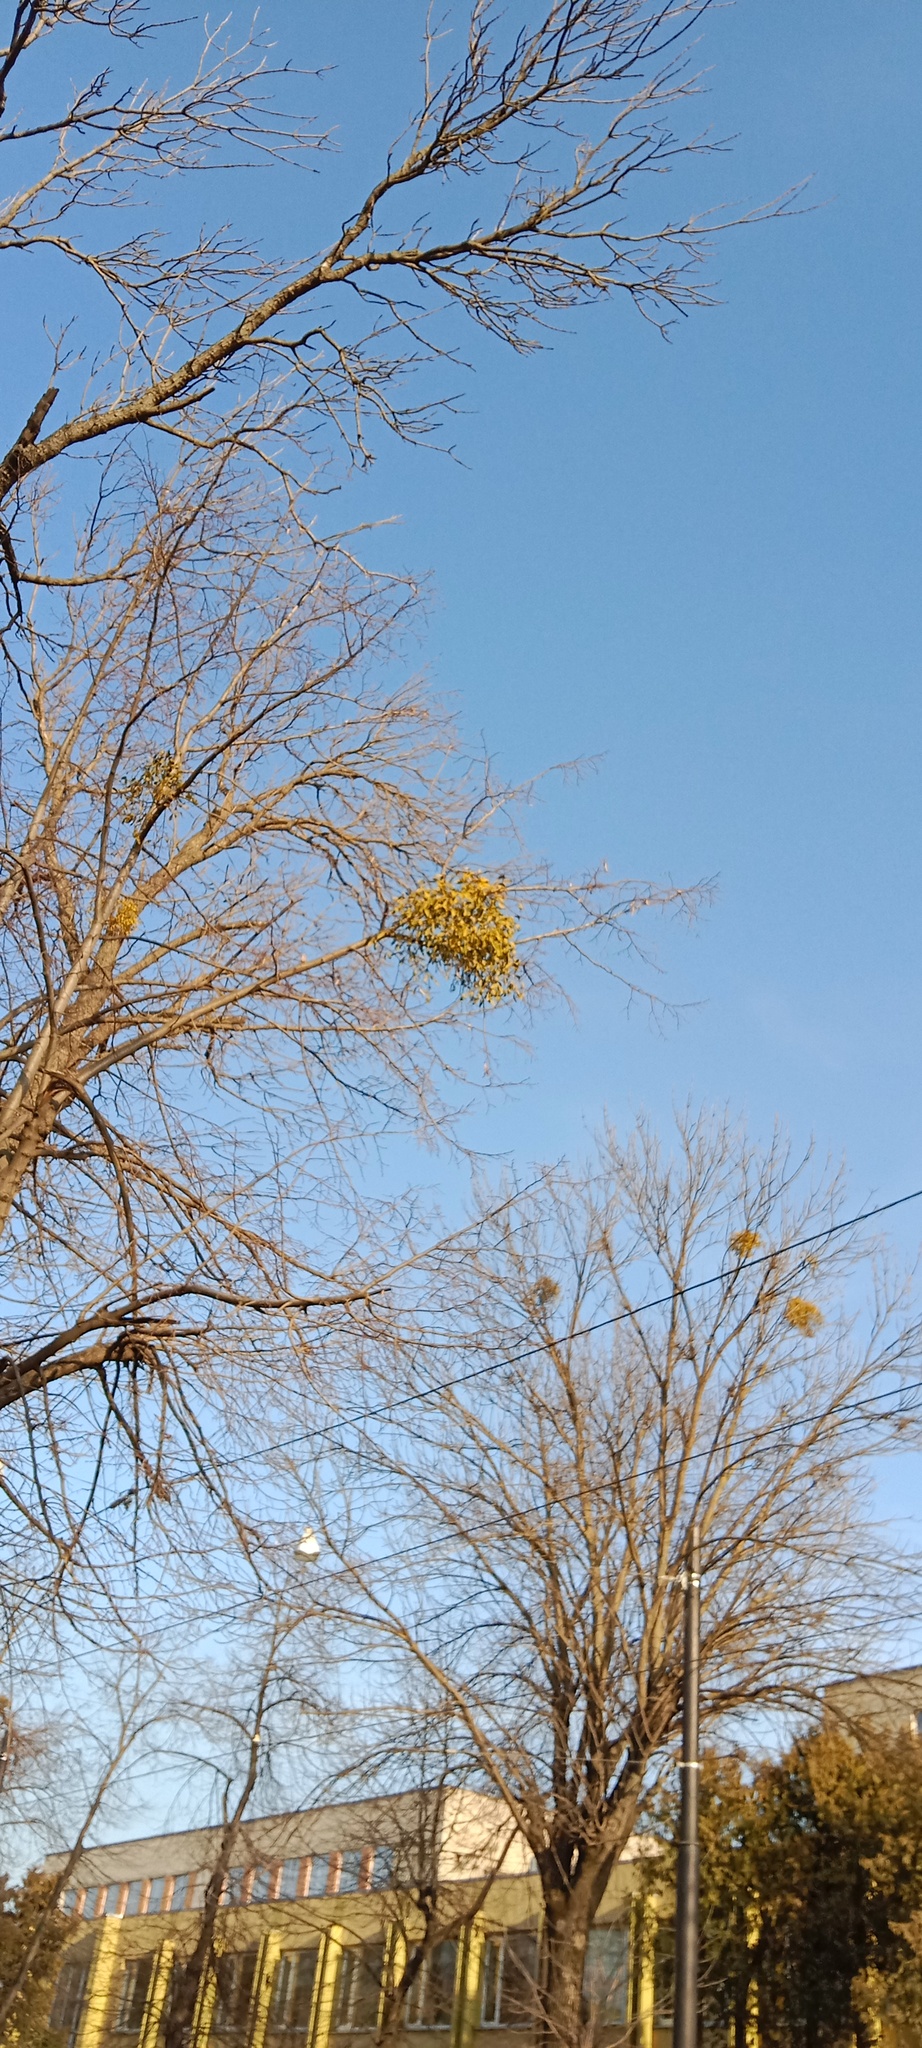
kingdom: Plantae
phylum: Tracheophyta
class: Magnoliopsida
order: Santalales
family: Viscaceae
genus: Viscum
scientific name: Viscum album
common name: Mistletoe
